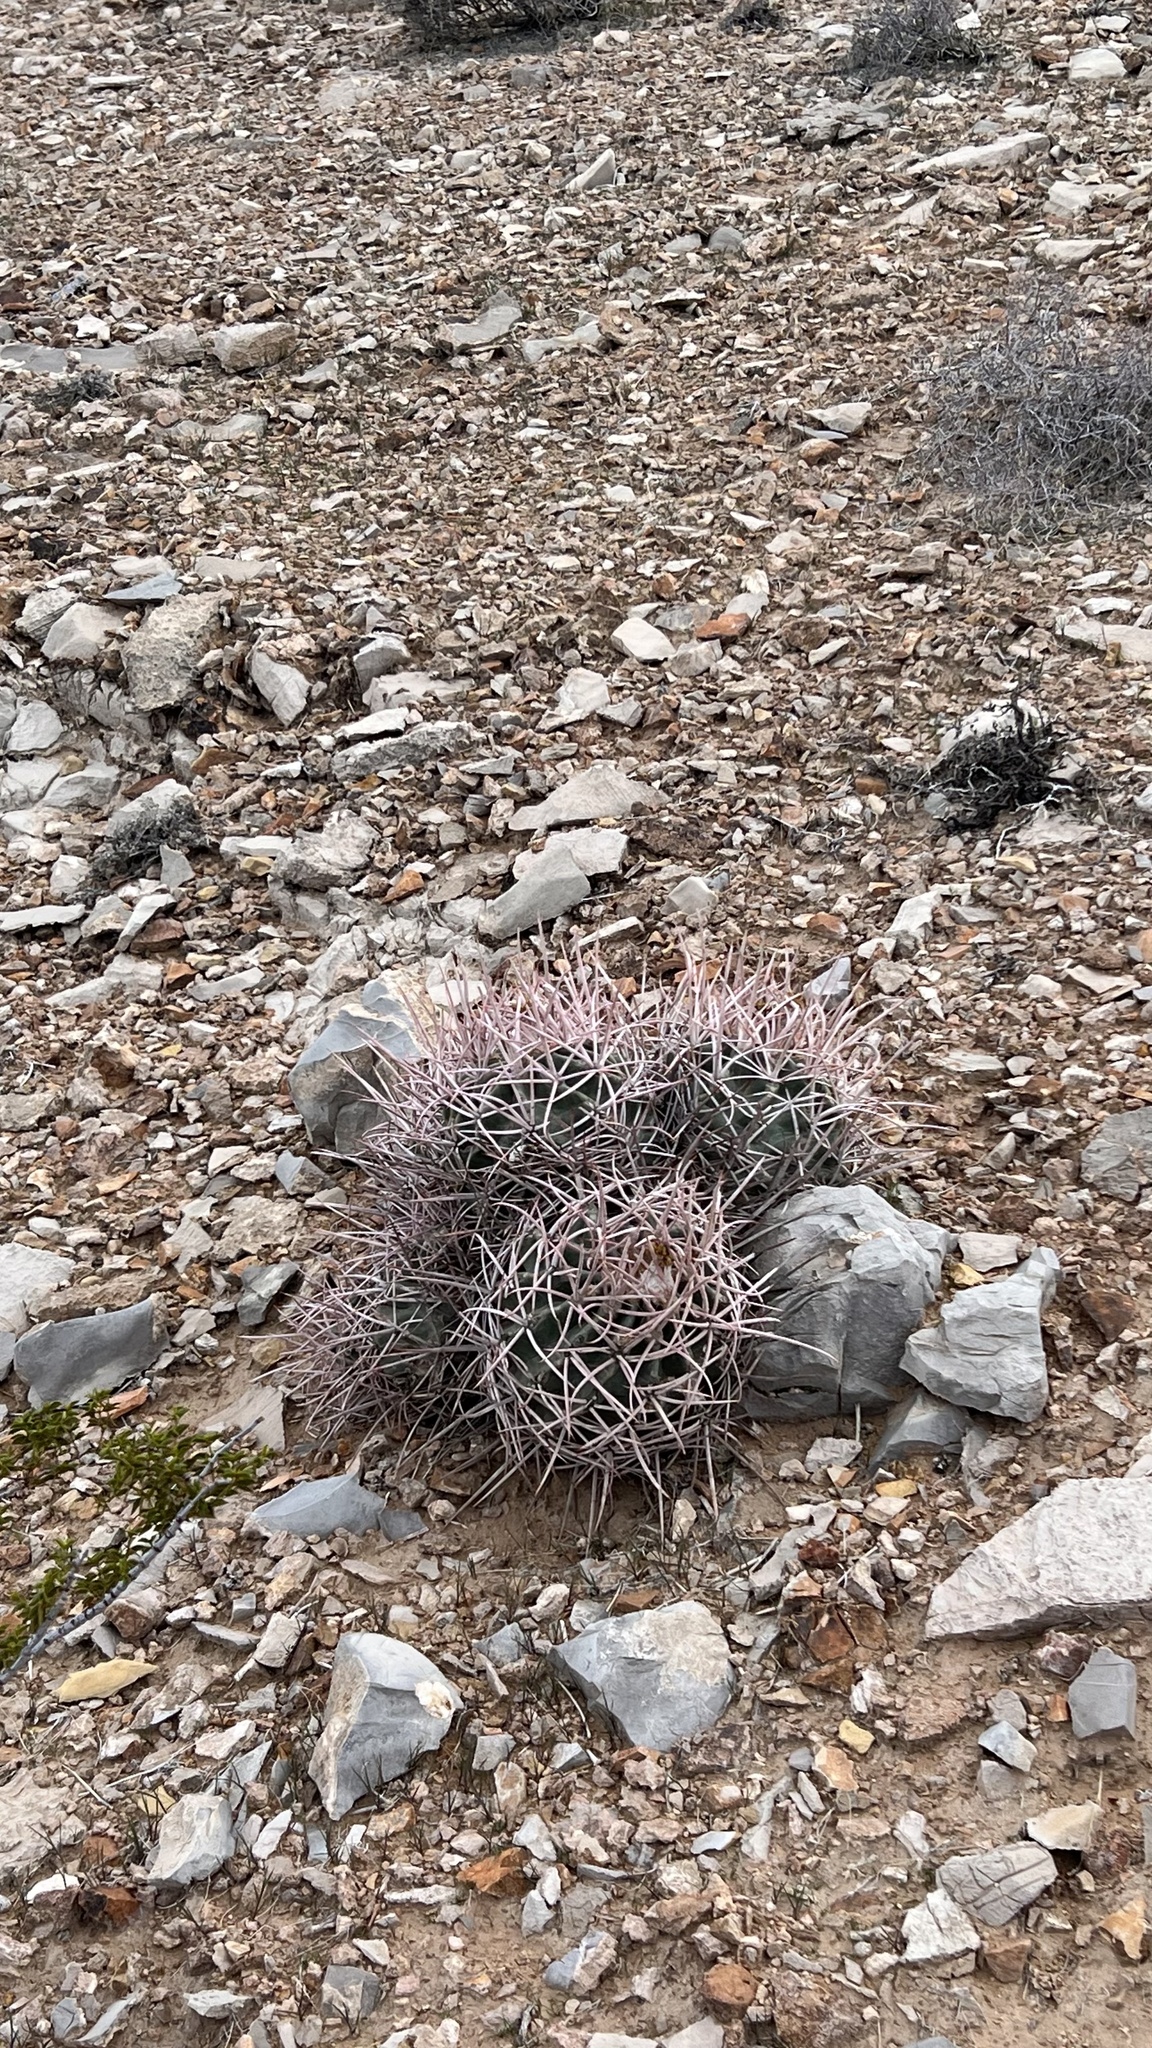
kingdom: Plantae
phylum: Tracheophyta
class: Magnoliopsida
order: Caryophyllales
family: Cactaceae
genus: Echinocactus
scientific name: Echinocactus polycephalus
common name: Cottontop cactus
